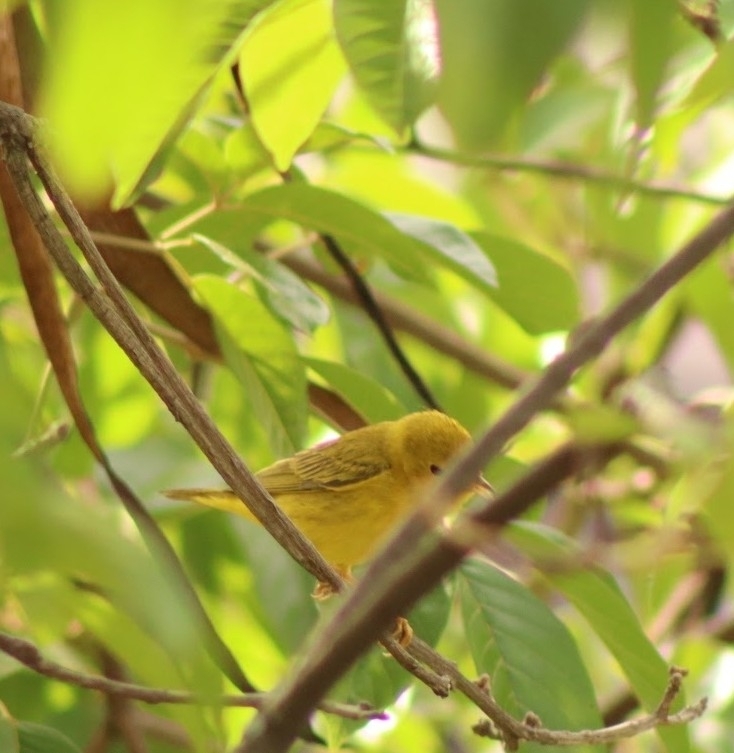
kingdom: Animalia
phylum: Chordata
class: Aves
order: Passeriformes
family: Parulidae
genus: Setophaga
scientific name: Setophaga petechia
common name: Yellow warbler
